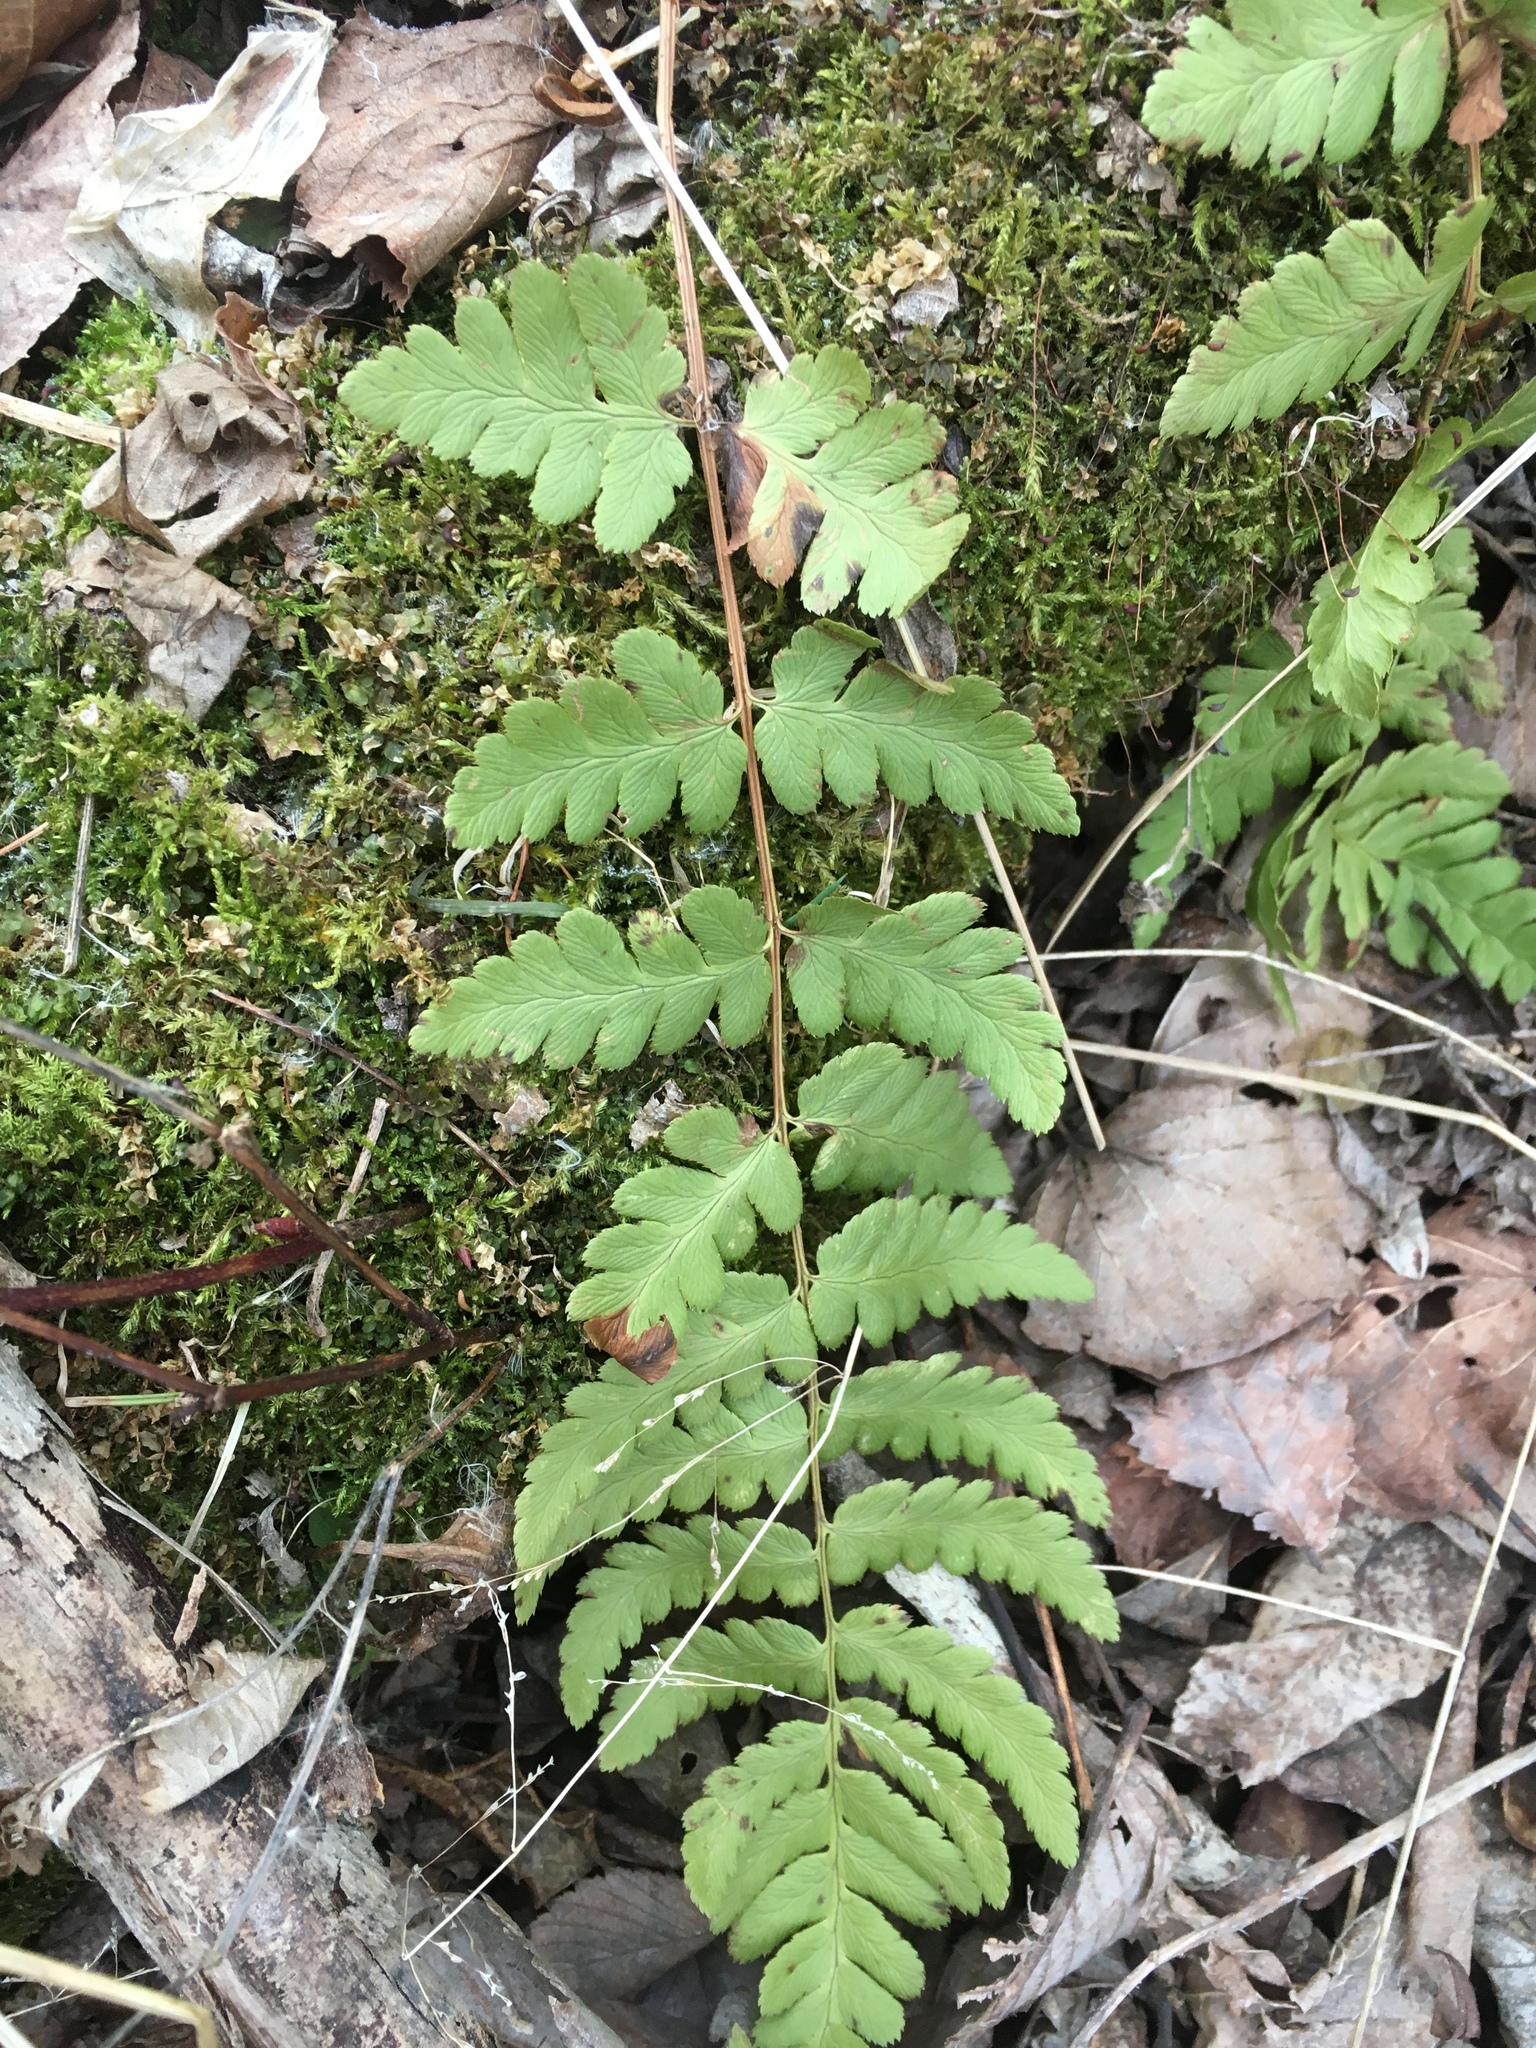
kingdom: Plantae
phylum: Tracheophyta
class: Polypodiopsida
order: Polypodiales
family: Dryopteridaceae
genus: Dryopteris
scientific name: Dryopteris cristata
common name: Crested wood fern
